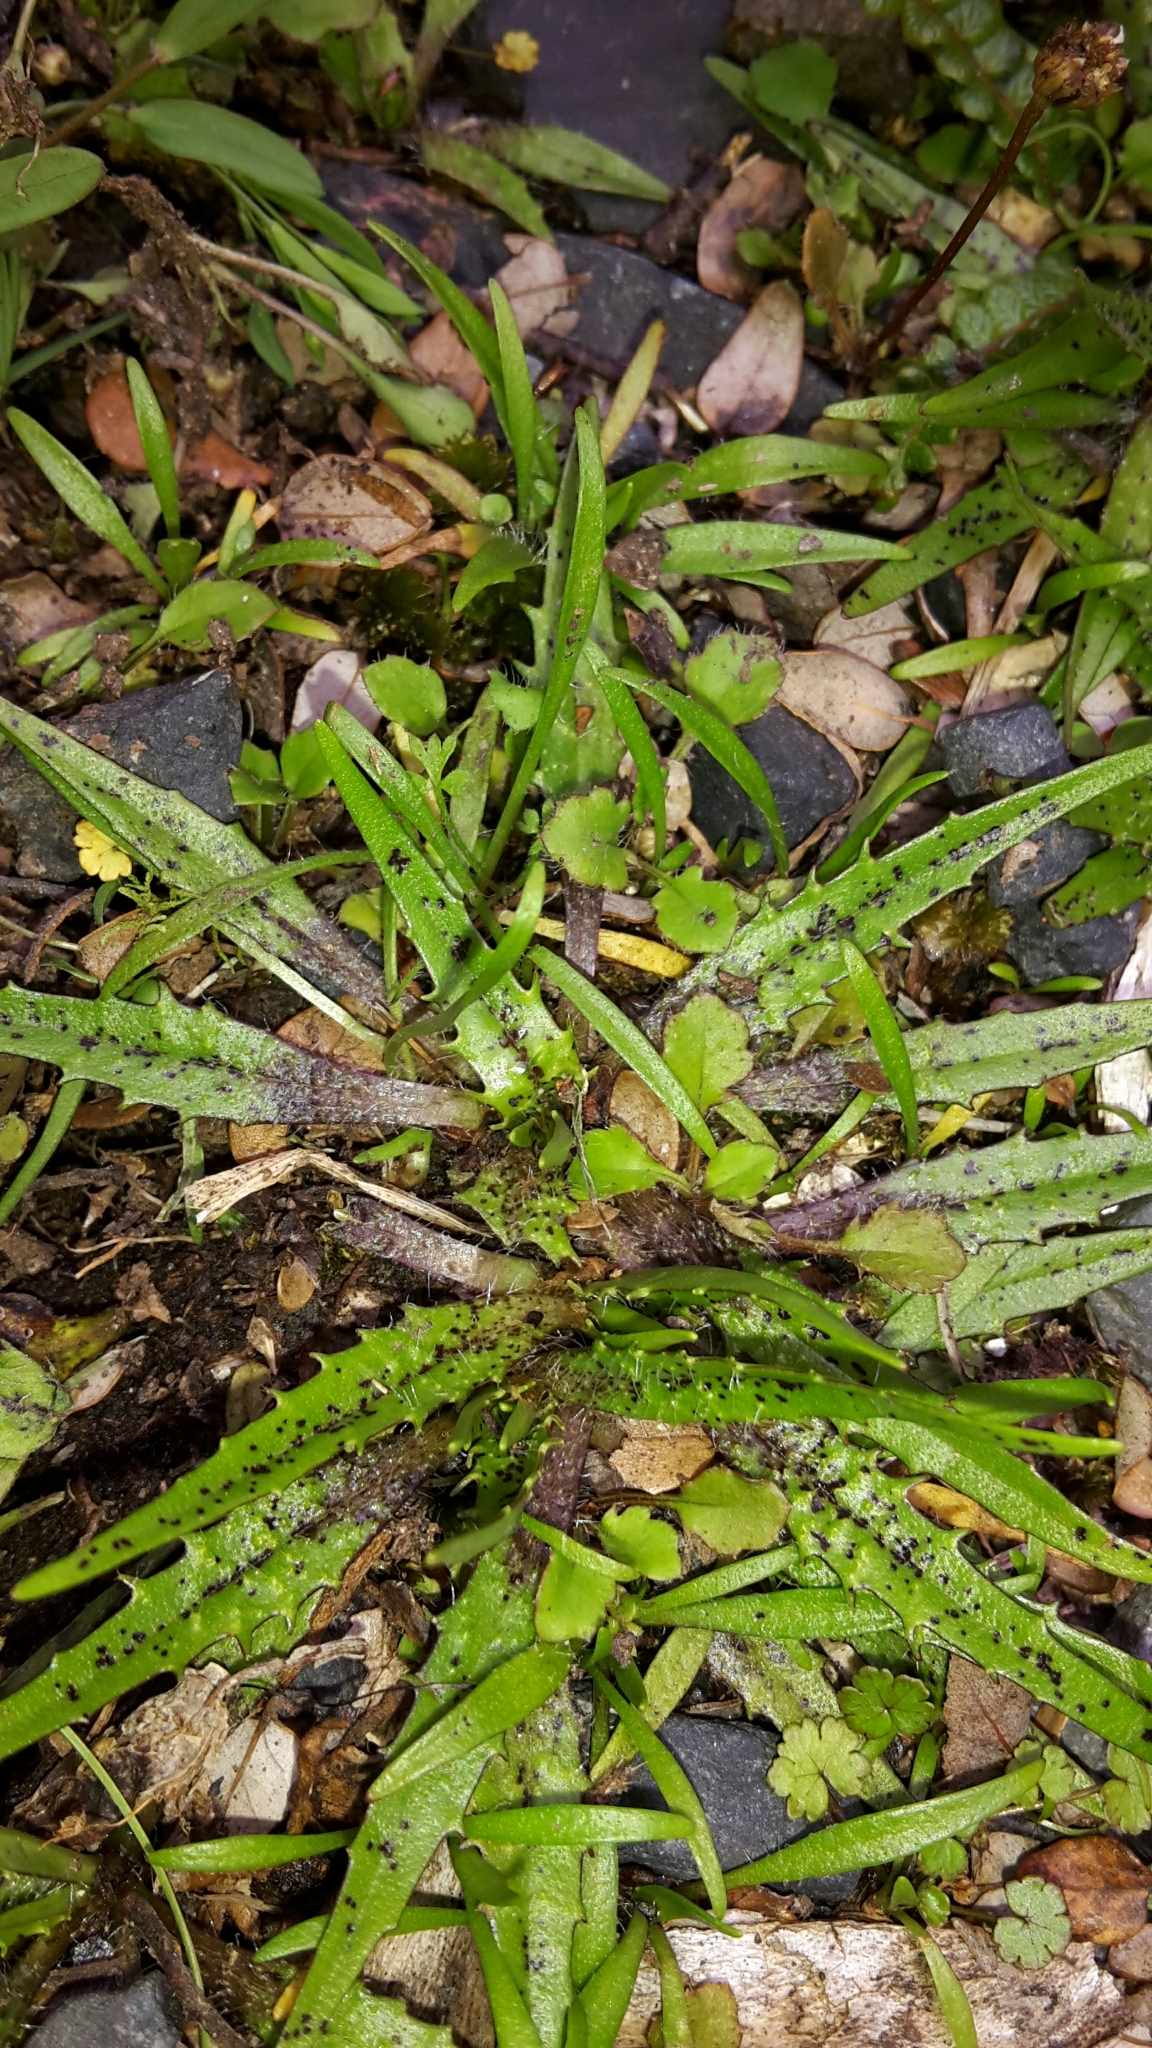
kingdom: Plantae
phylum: Tracheophyta
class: Magnoliopsida
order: Lamiales
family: Plantaginaceae
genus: Plantago
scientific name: Plantago triandra
